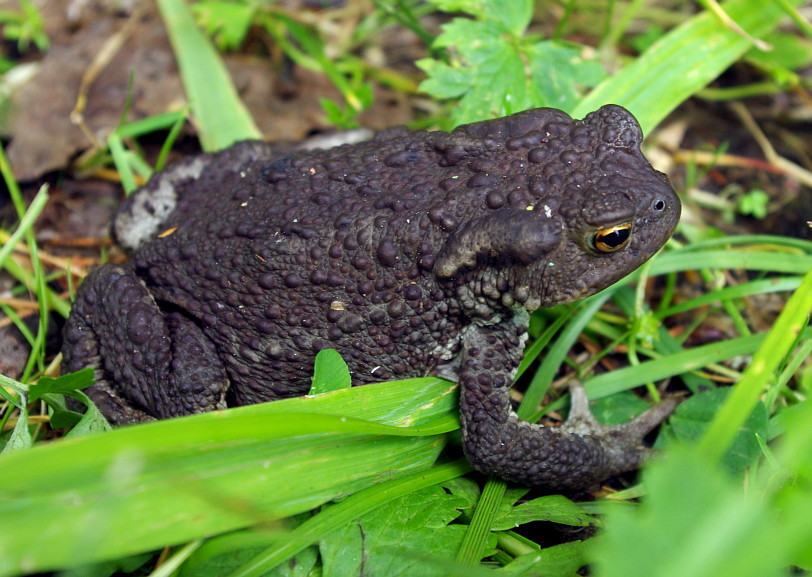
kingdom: Animalia
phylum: Chordata
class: Amphibia
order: Anura
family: Bufonidae
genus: Bufo
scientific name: Bufo bufo
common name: Common toad
